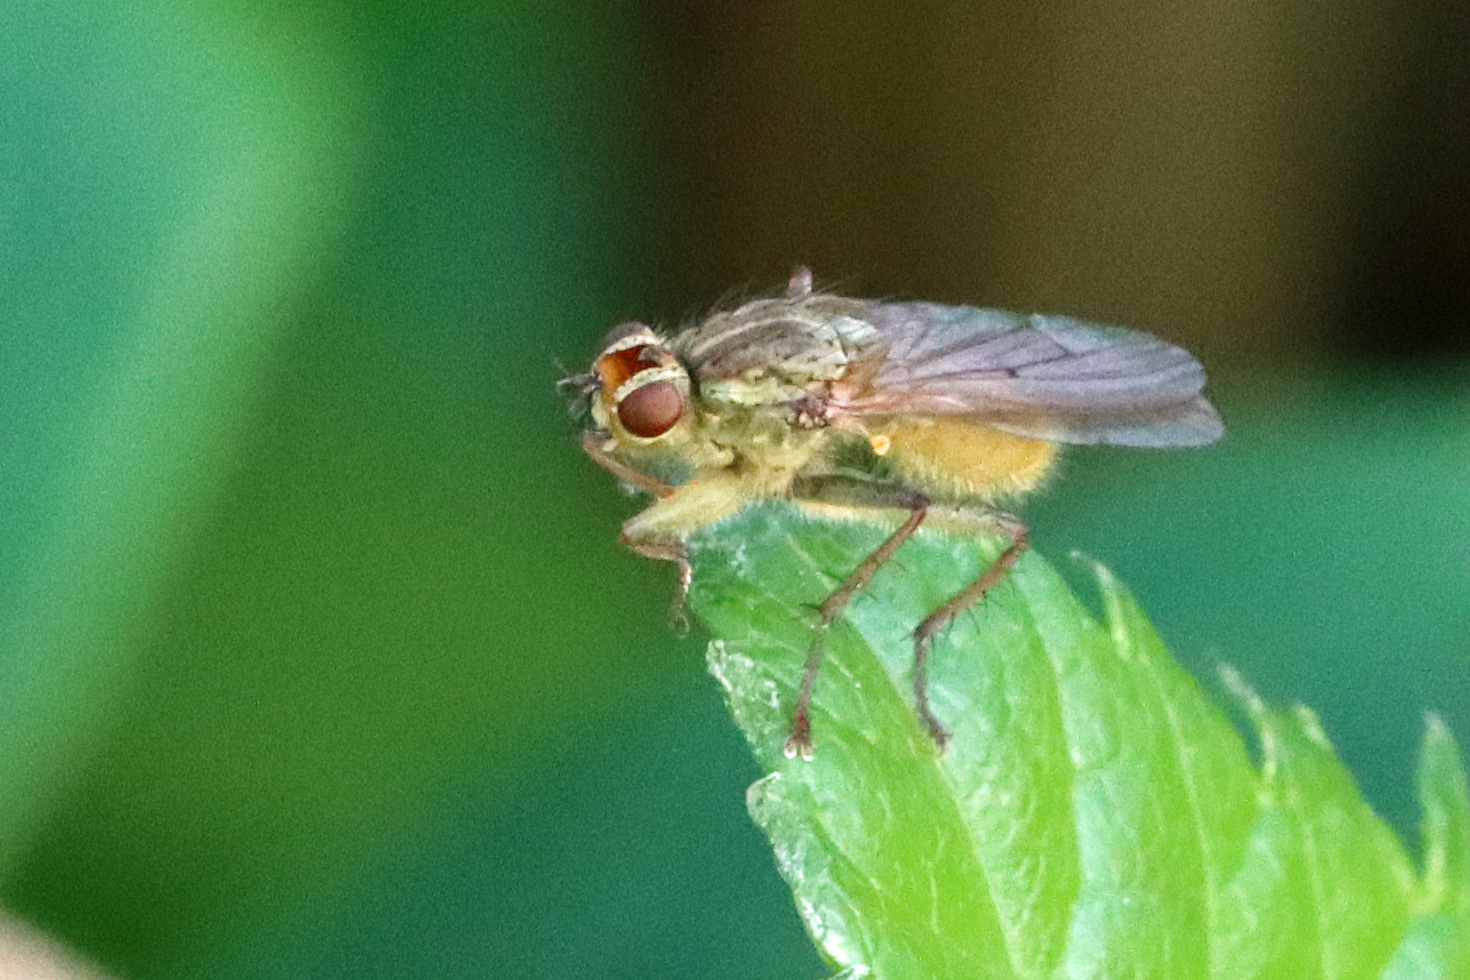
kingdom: Animalia
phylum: Arthropoda
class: Insecta
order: Diptera
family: Scathophagidae
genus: Scathophaga
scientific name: Scathophaga stercoraria
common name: Yellow dung fly
